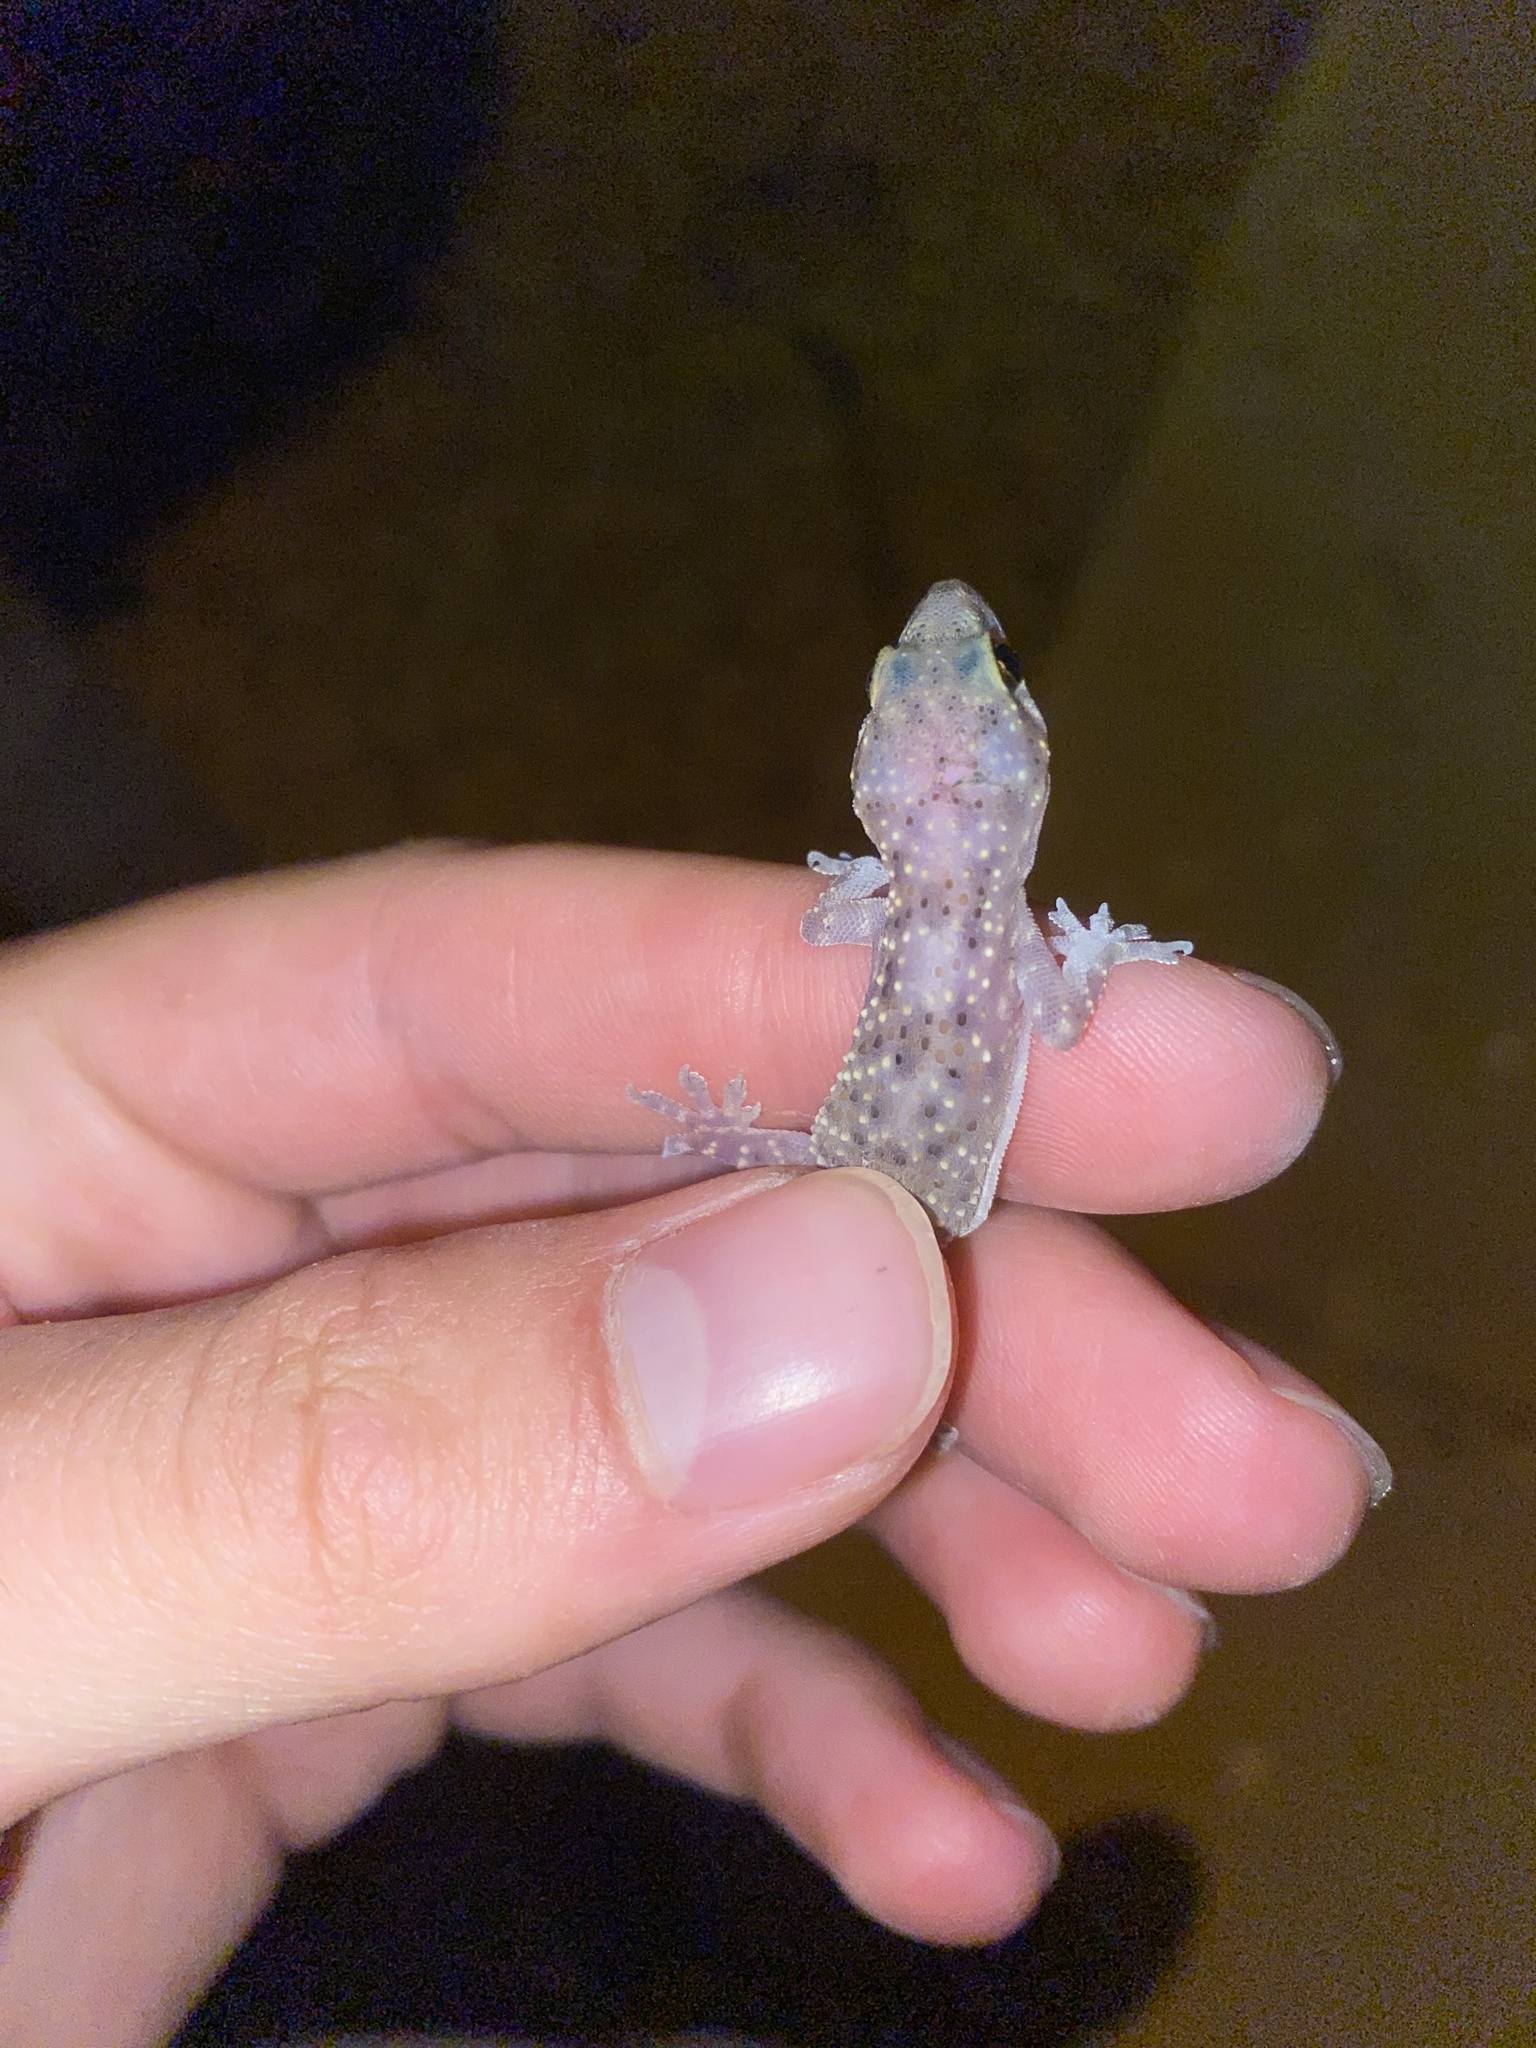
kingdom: Animalia
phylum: Chordata
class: Squamata
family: Gekkonidae
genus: Hemidactylus
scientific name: Hemidactylus turcicus
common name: Turkish gecko
